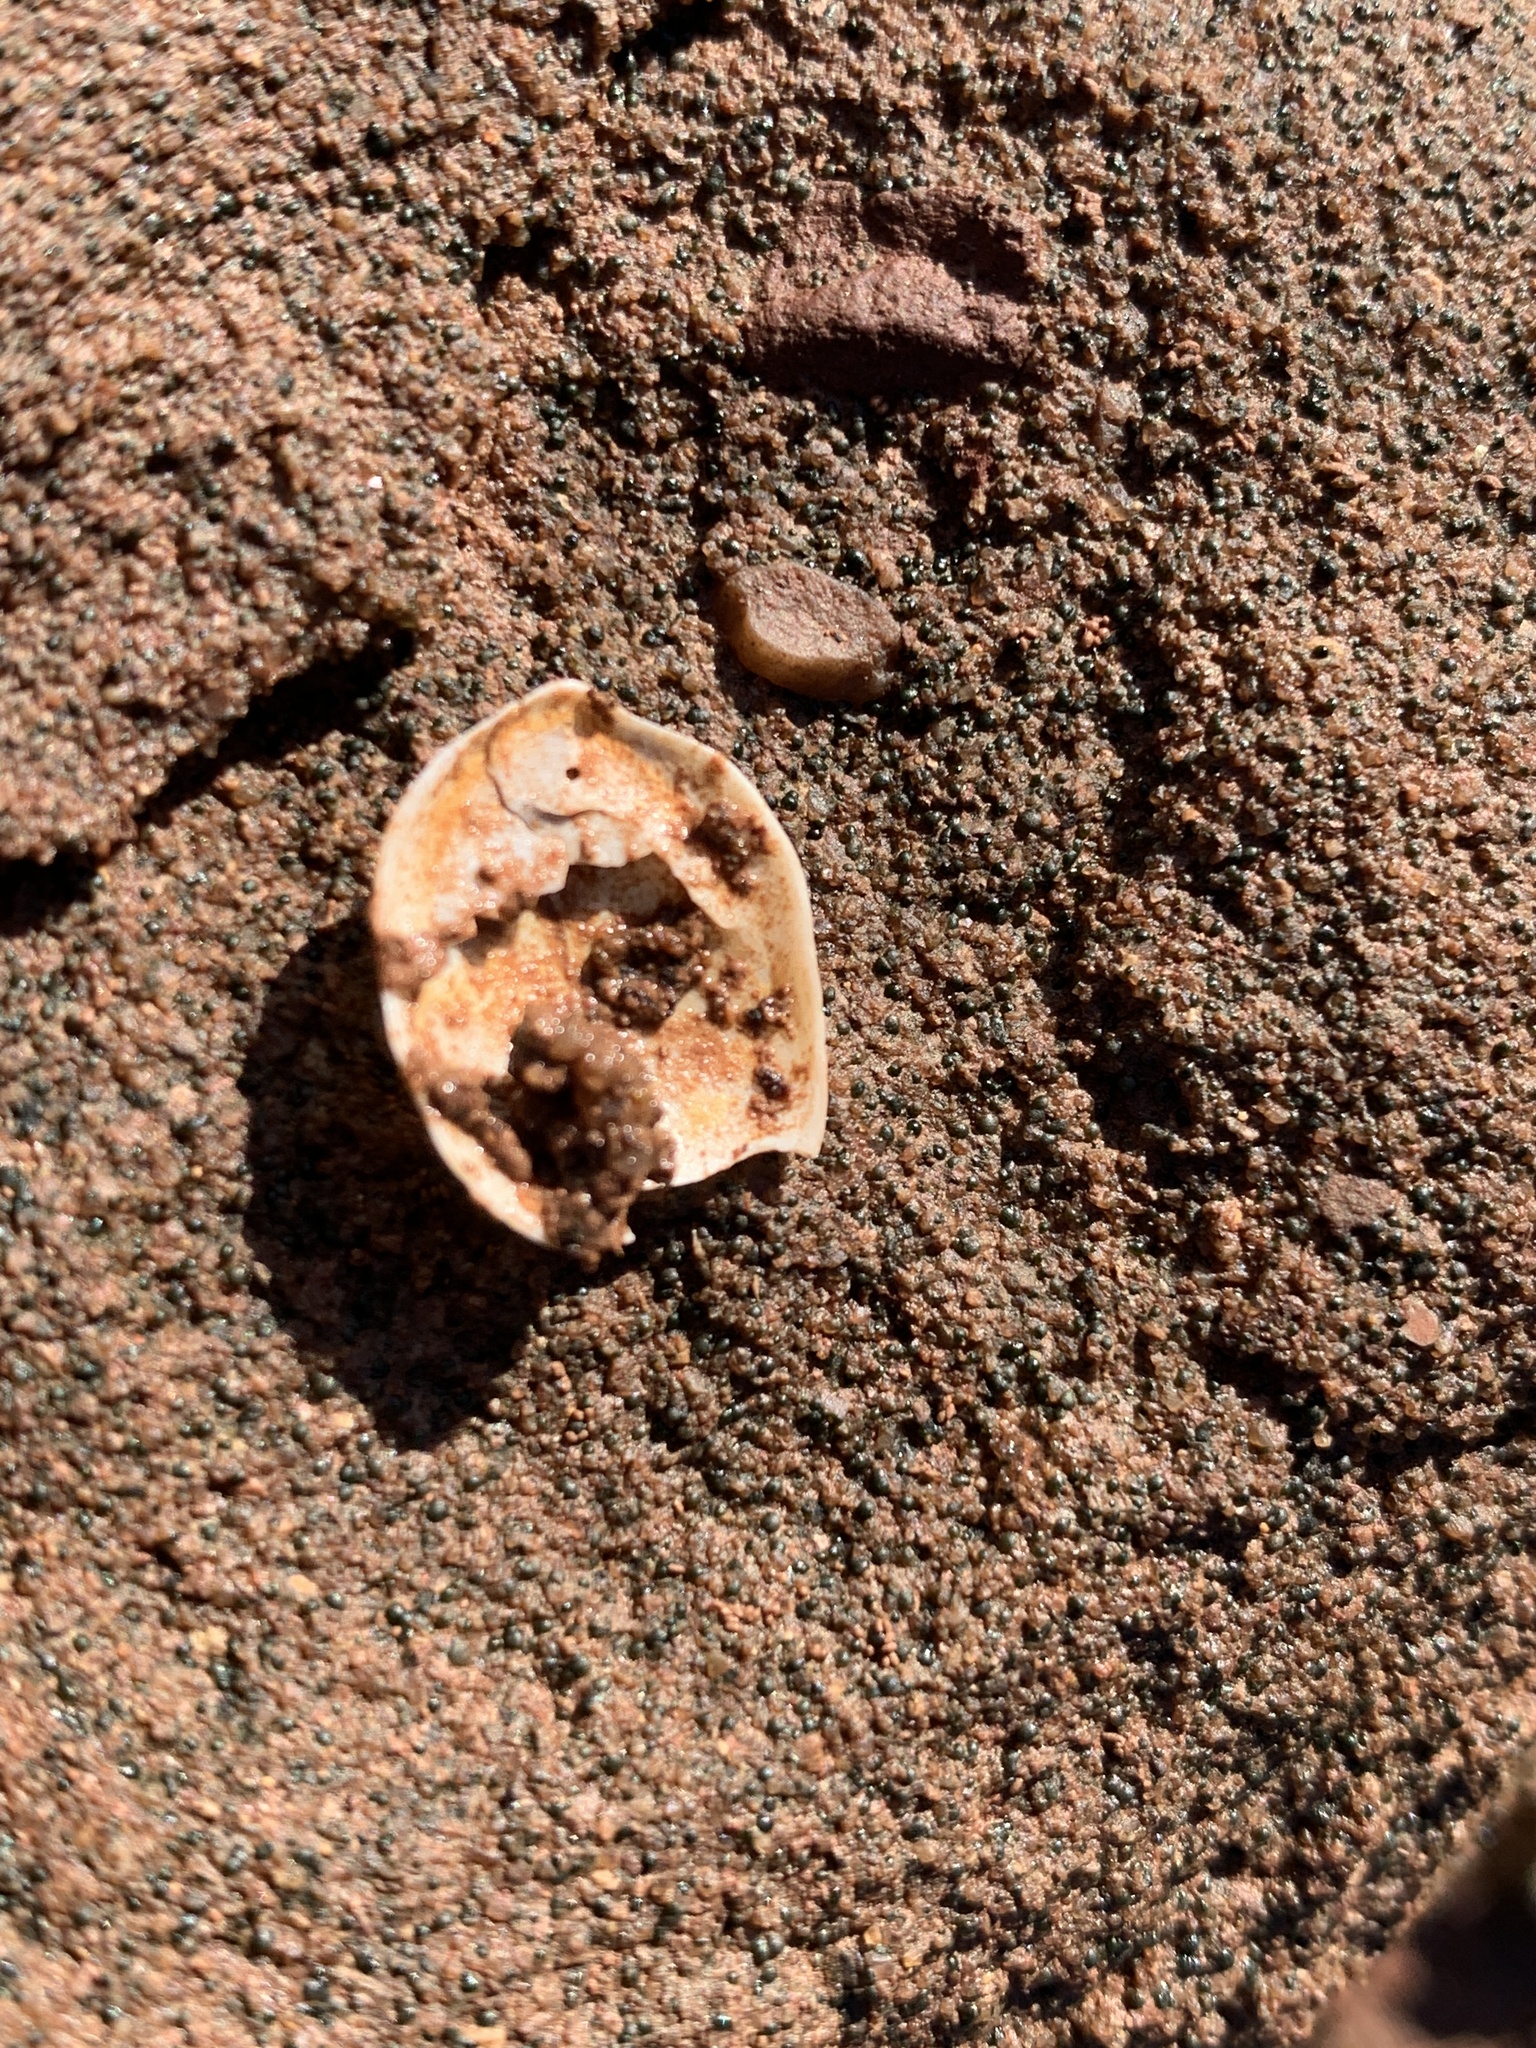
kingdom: Animalia
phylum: Mollusca
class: Gastropoda
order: Littorinimorpha
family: Calyptraeidae
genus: Crepidula
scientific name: Crepidula plana
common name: Eastern white slippersnail
